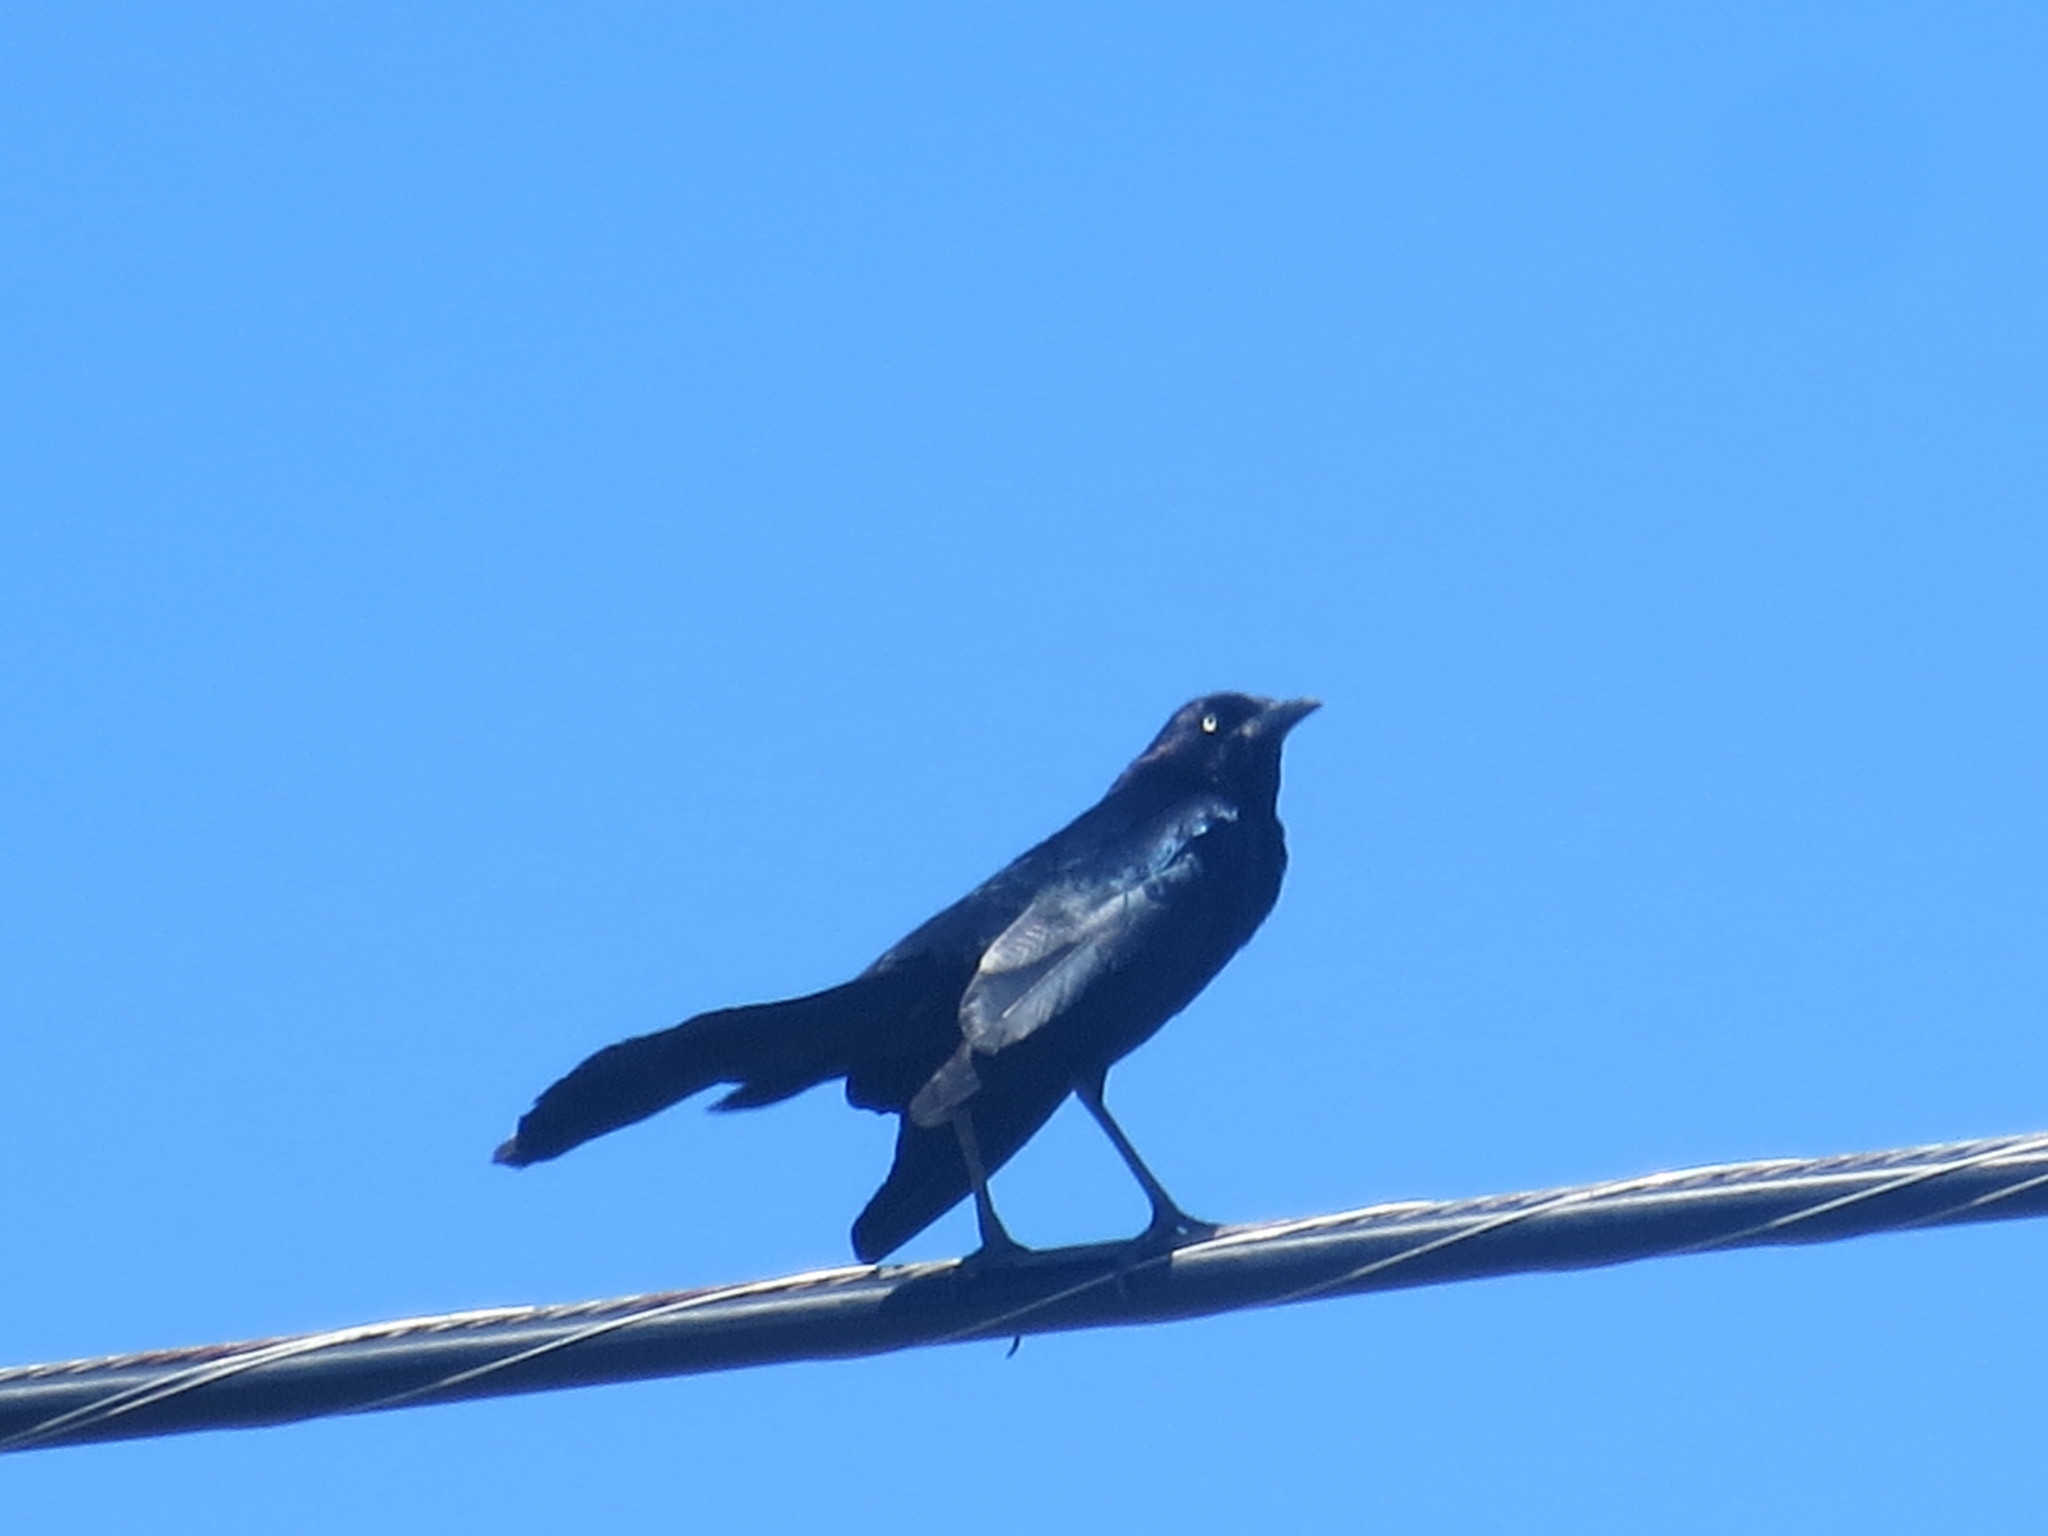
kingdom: Animalia
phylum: Chordata
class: Aves
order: Passeriformes
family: Icteridae
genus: Quiscalus
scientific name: Quiscalus major
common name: Boat-tailed grackle
